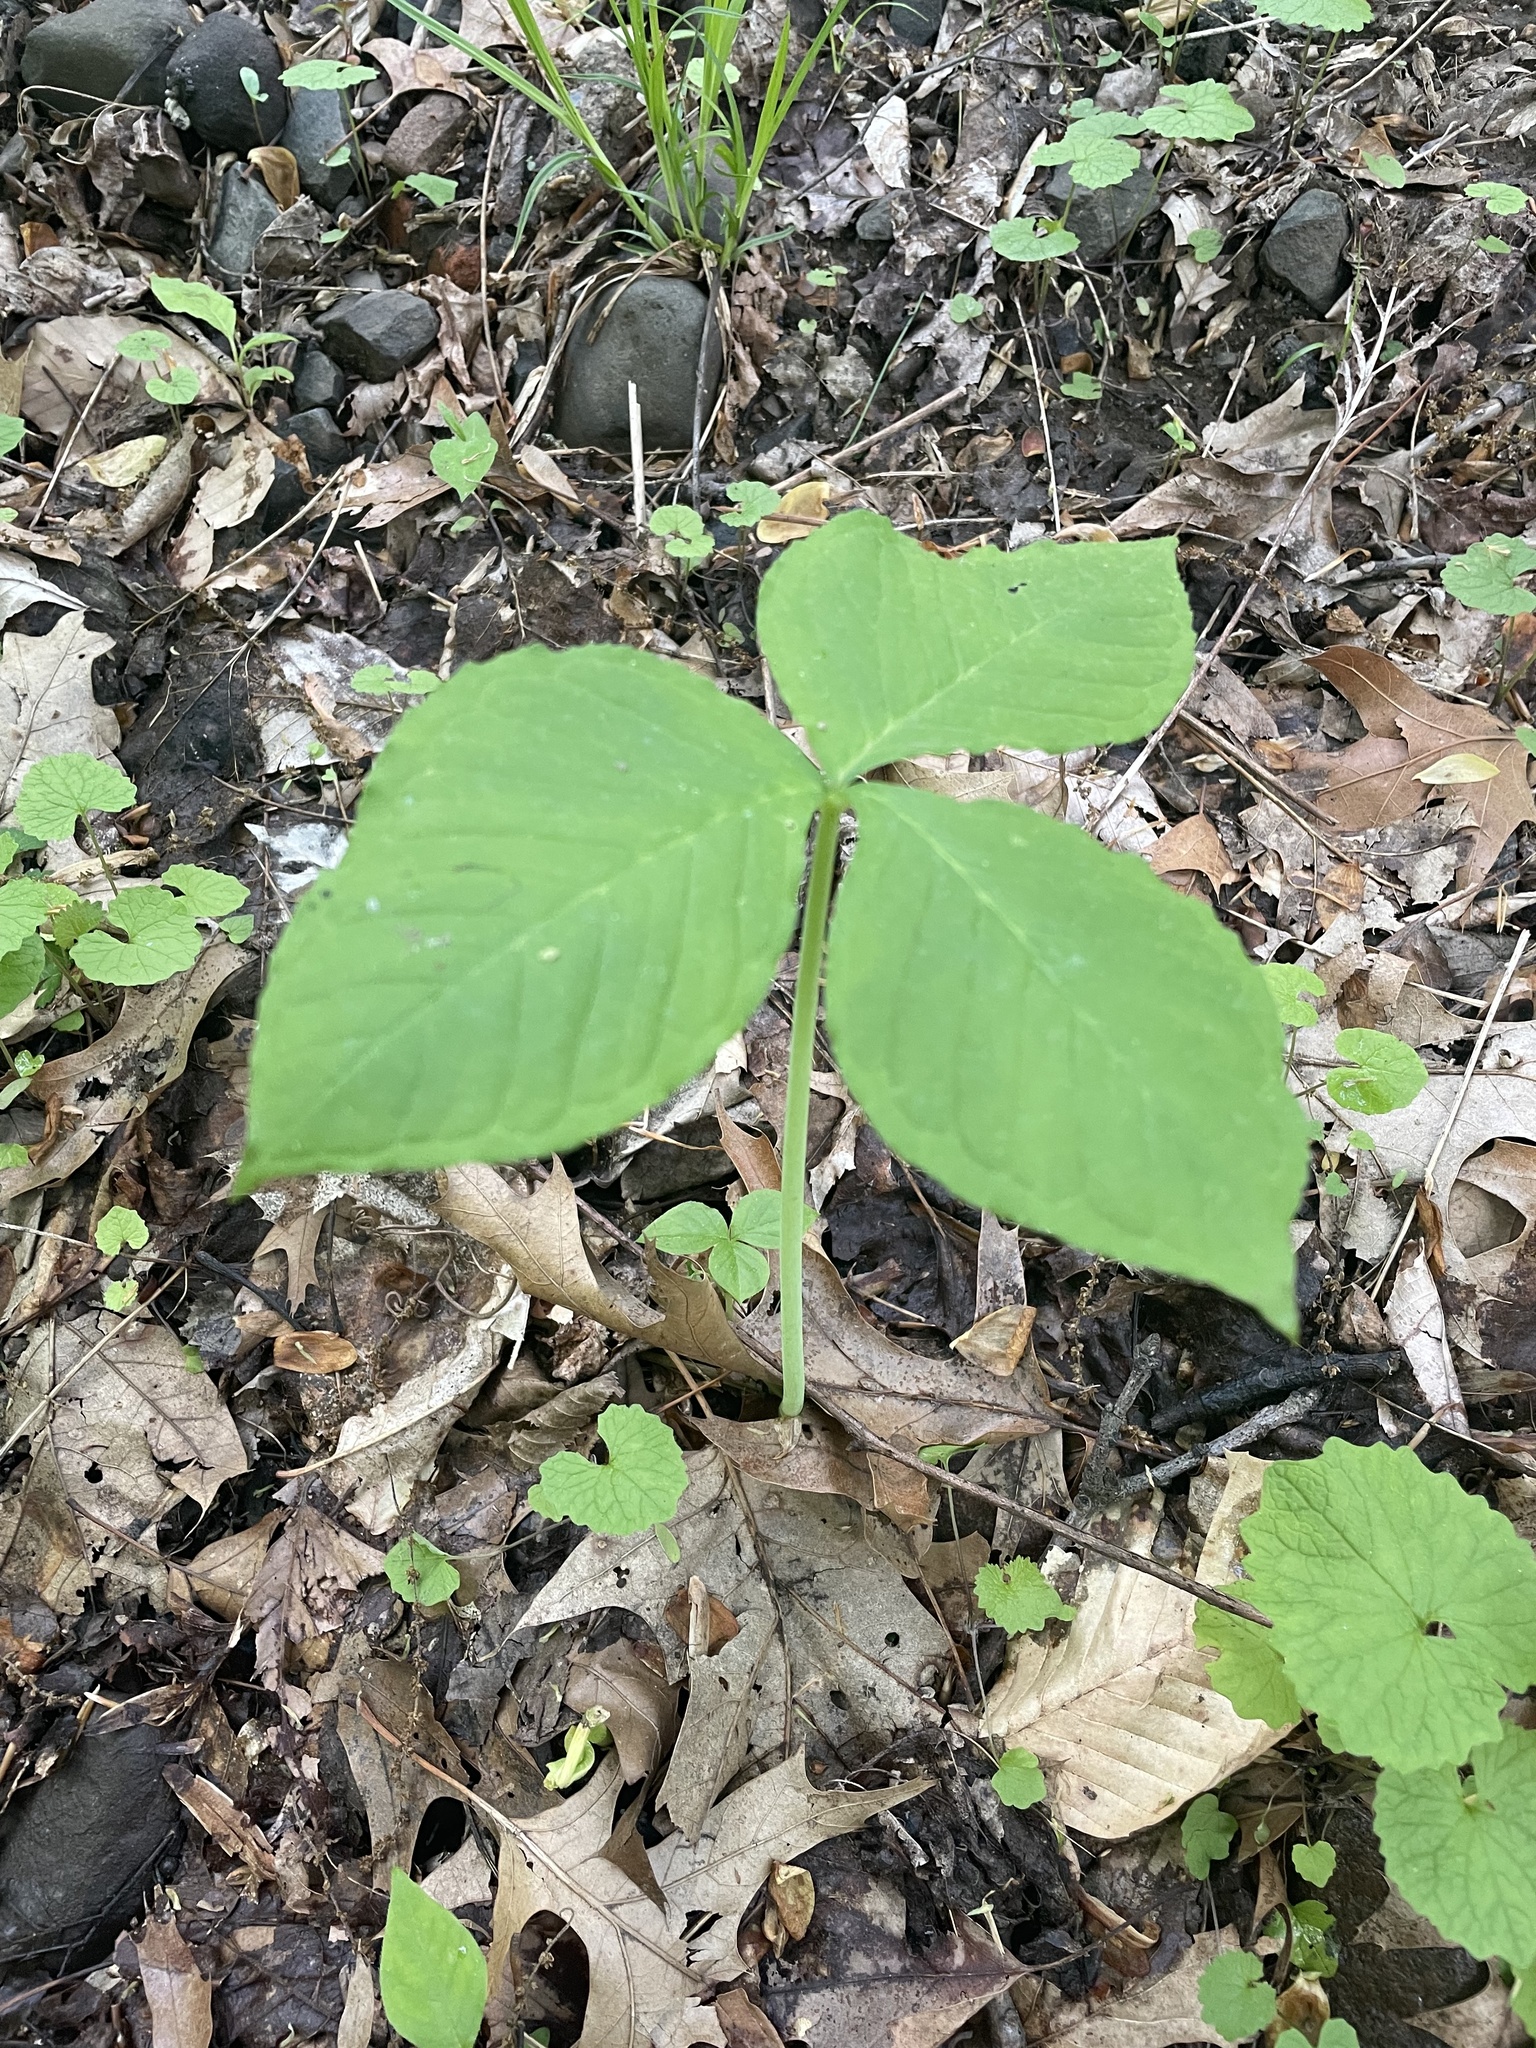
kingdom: Plantae
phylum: Tracheophyta
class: Liliopsida
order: Alismatales
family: Araceae
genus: Arisaema
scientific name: Arisaema triphyllum
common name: Jack-in-the-pulpit
